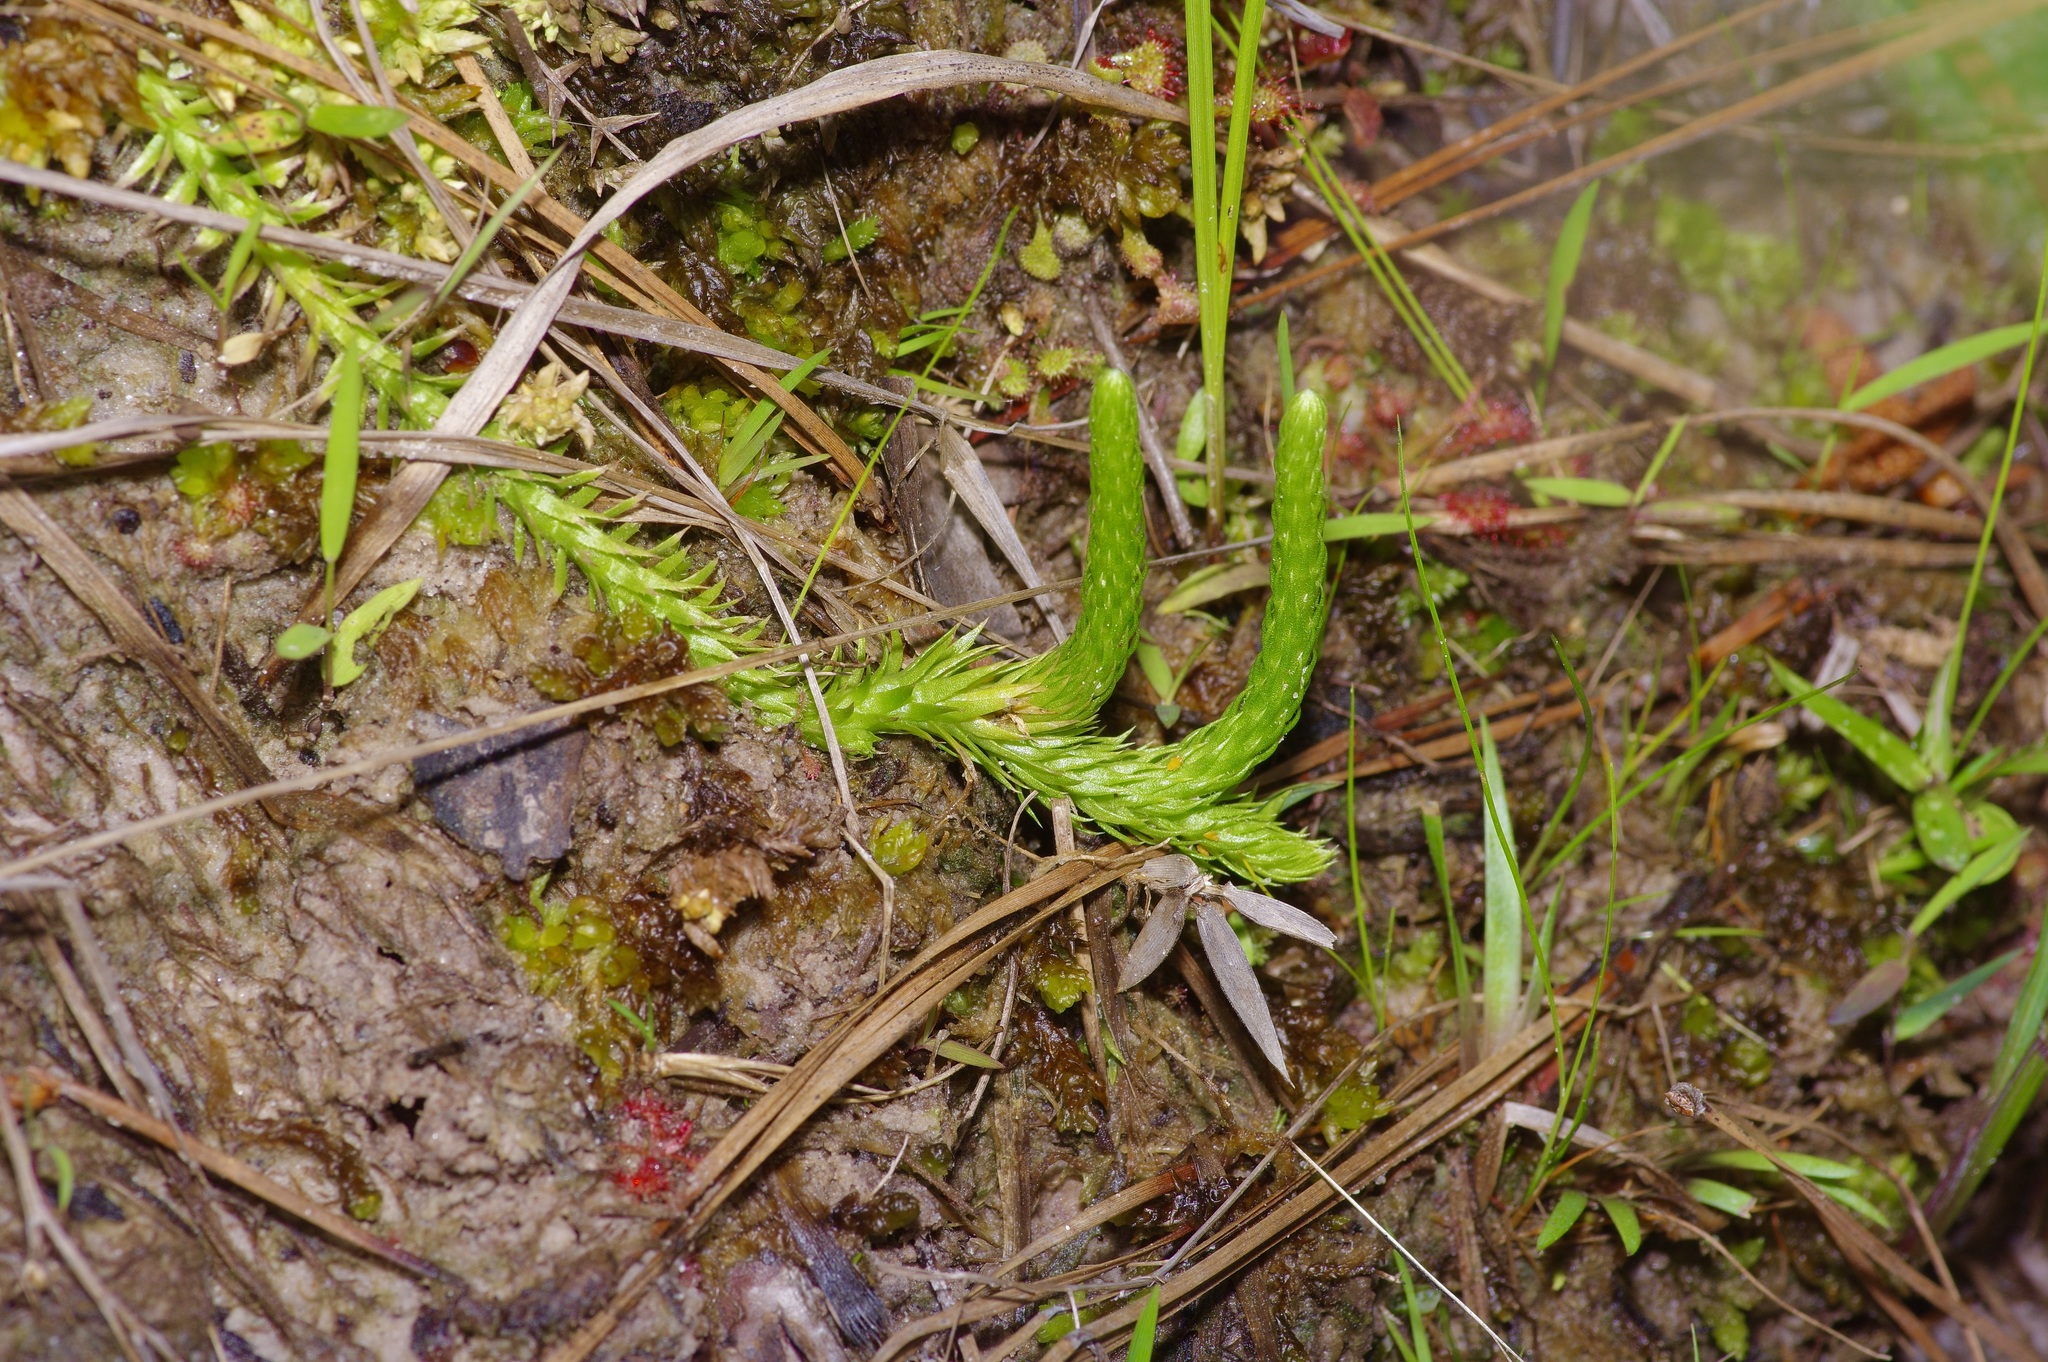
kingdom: Plantae
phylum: Tracheophyta
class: Lycopodiopsida
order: Lycopodiales
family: Lycopodiaceae
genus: Lycopodiella
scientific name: Lycopodiella appressa
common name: Appressed bog clubmoss
